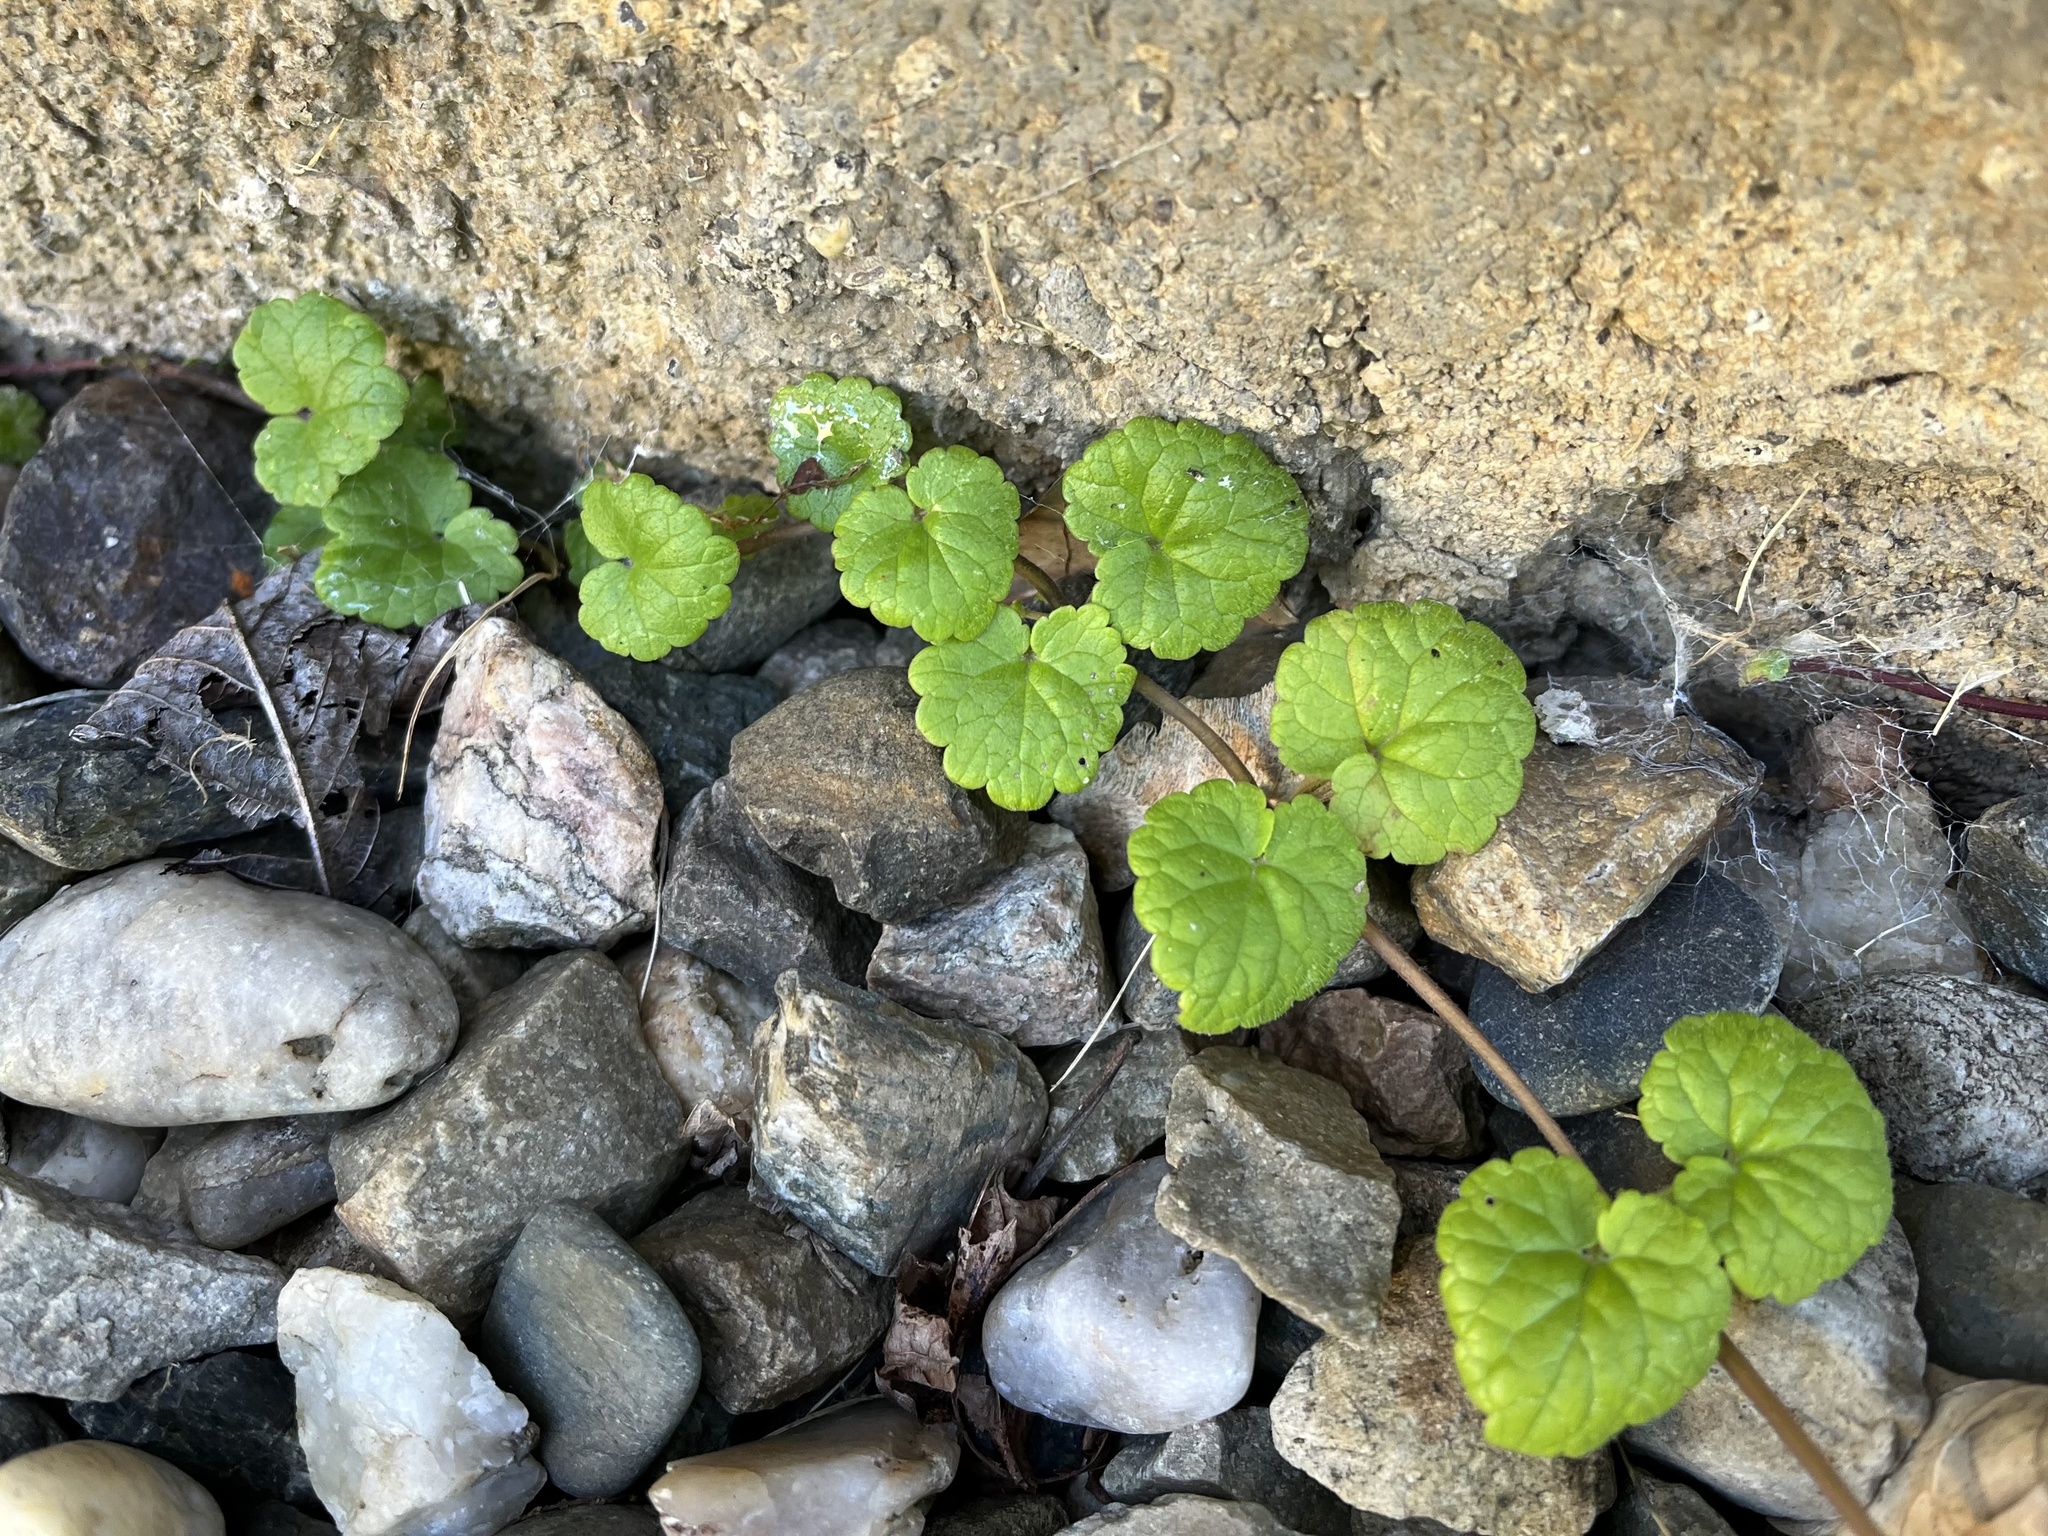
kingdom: Plantae
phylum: Tracheophyta
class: Magnoliopsida
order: Lamiales
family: Lamiaceae
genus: Glechoma
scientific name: Glechoma hederacea
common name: Ground ivy
